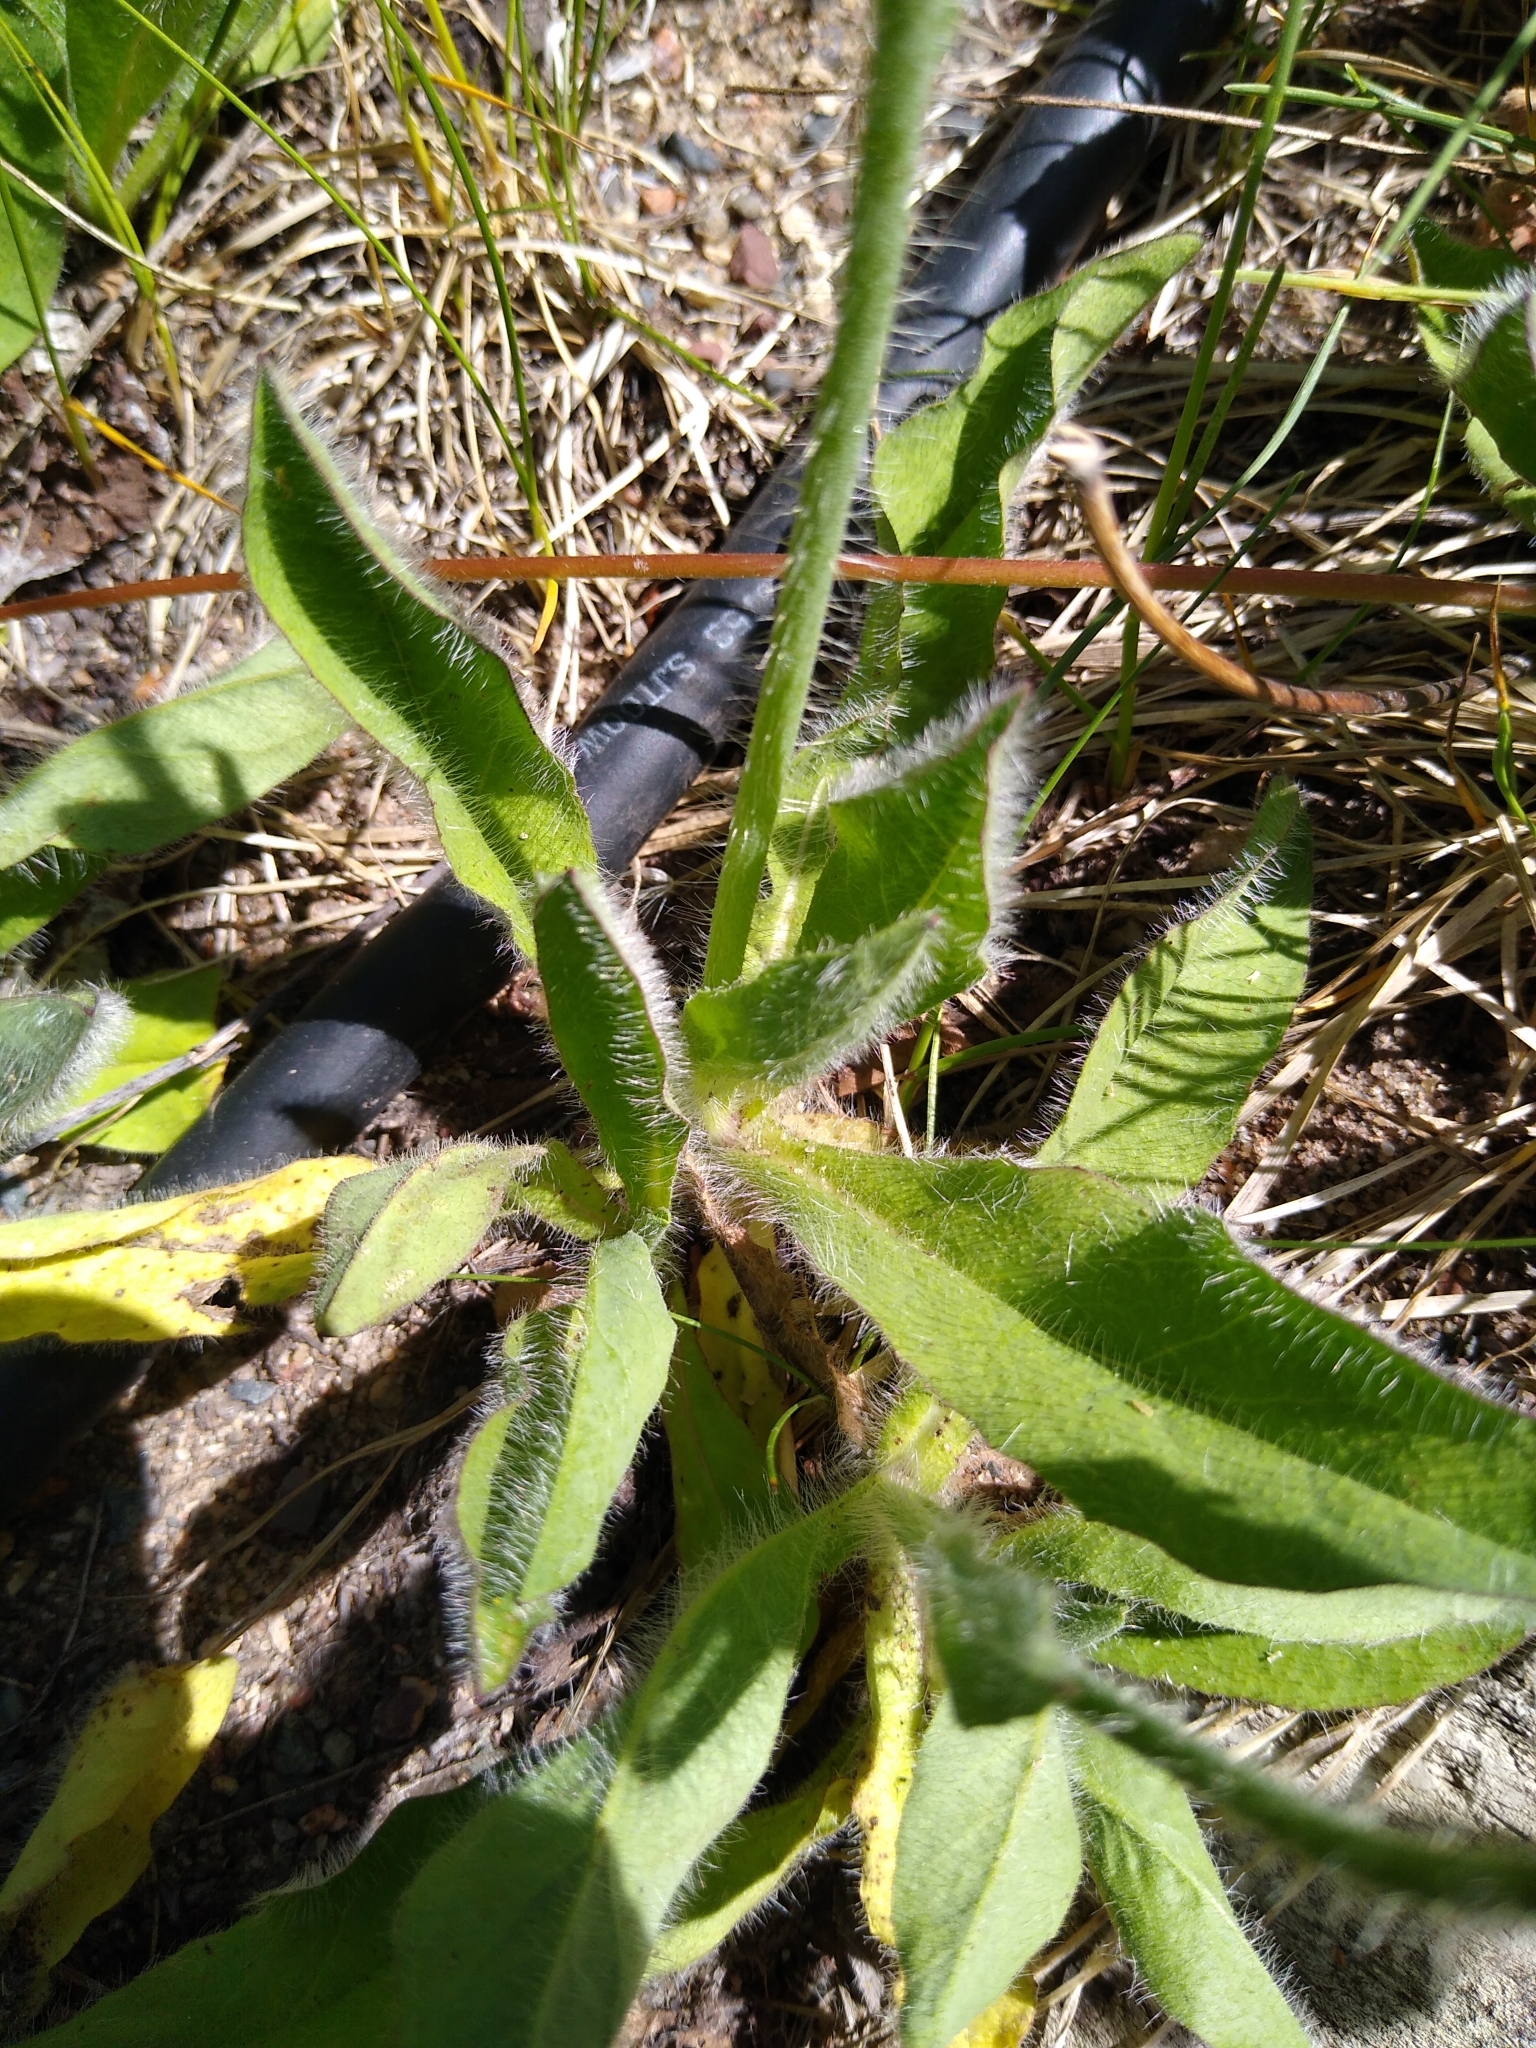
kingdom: Plantae
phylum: Tracheophyta
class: Magnoliopsida
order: Asterales
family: Asteraceae
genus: Pilosella
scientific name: Pilosella aurantiaca
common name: Fox-and-cubs
